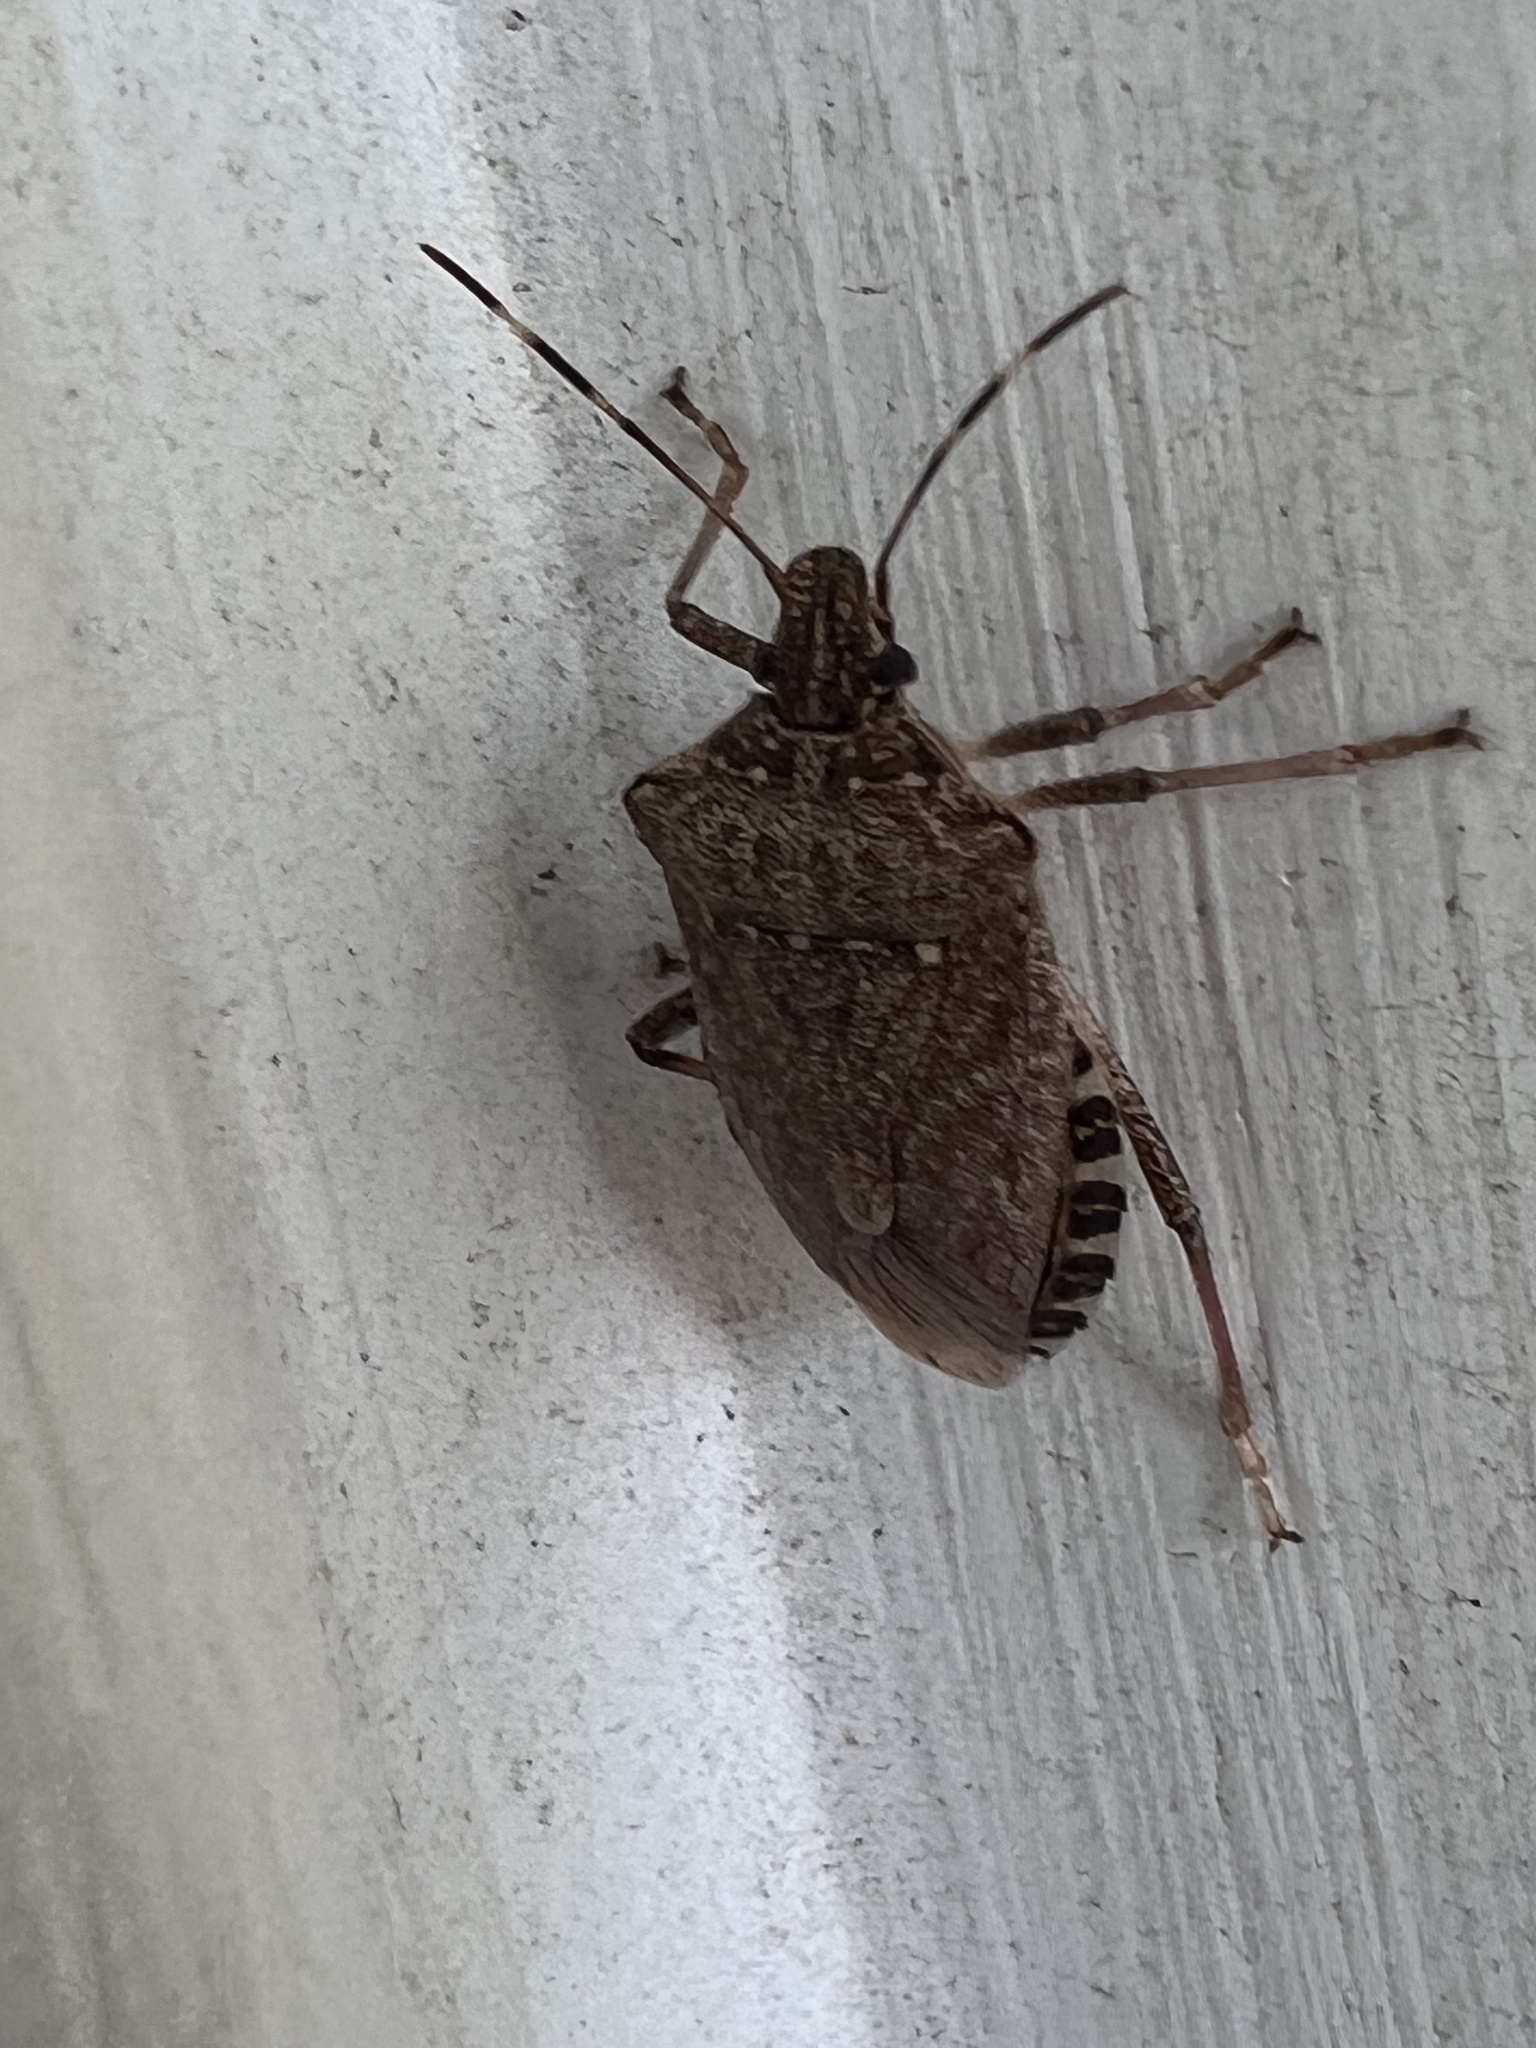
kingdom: Animalia
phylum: Arthropoda
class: Insecta
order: Hemiptera
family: Pentatomidae
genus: Halyomorpha
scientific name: Halyomorpha halys
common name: Brown marmorated stink bug
